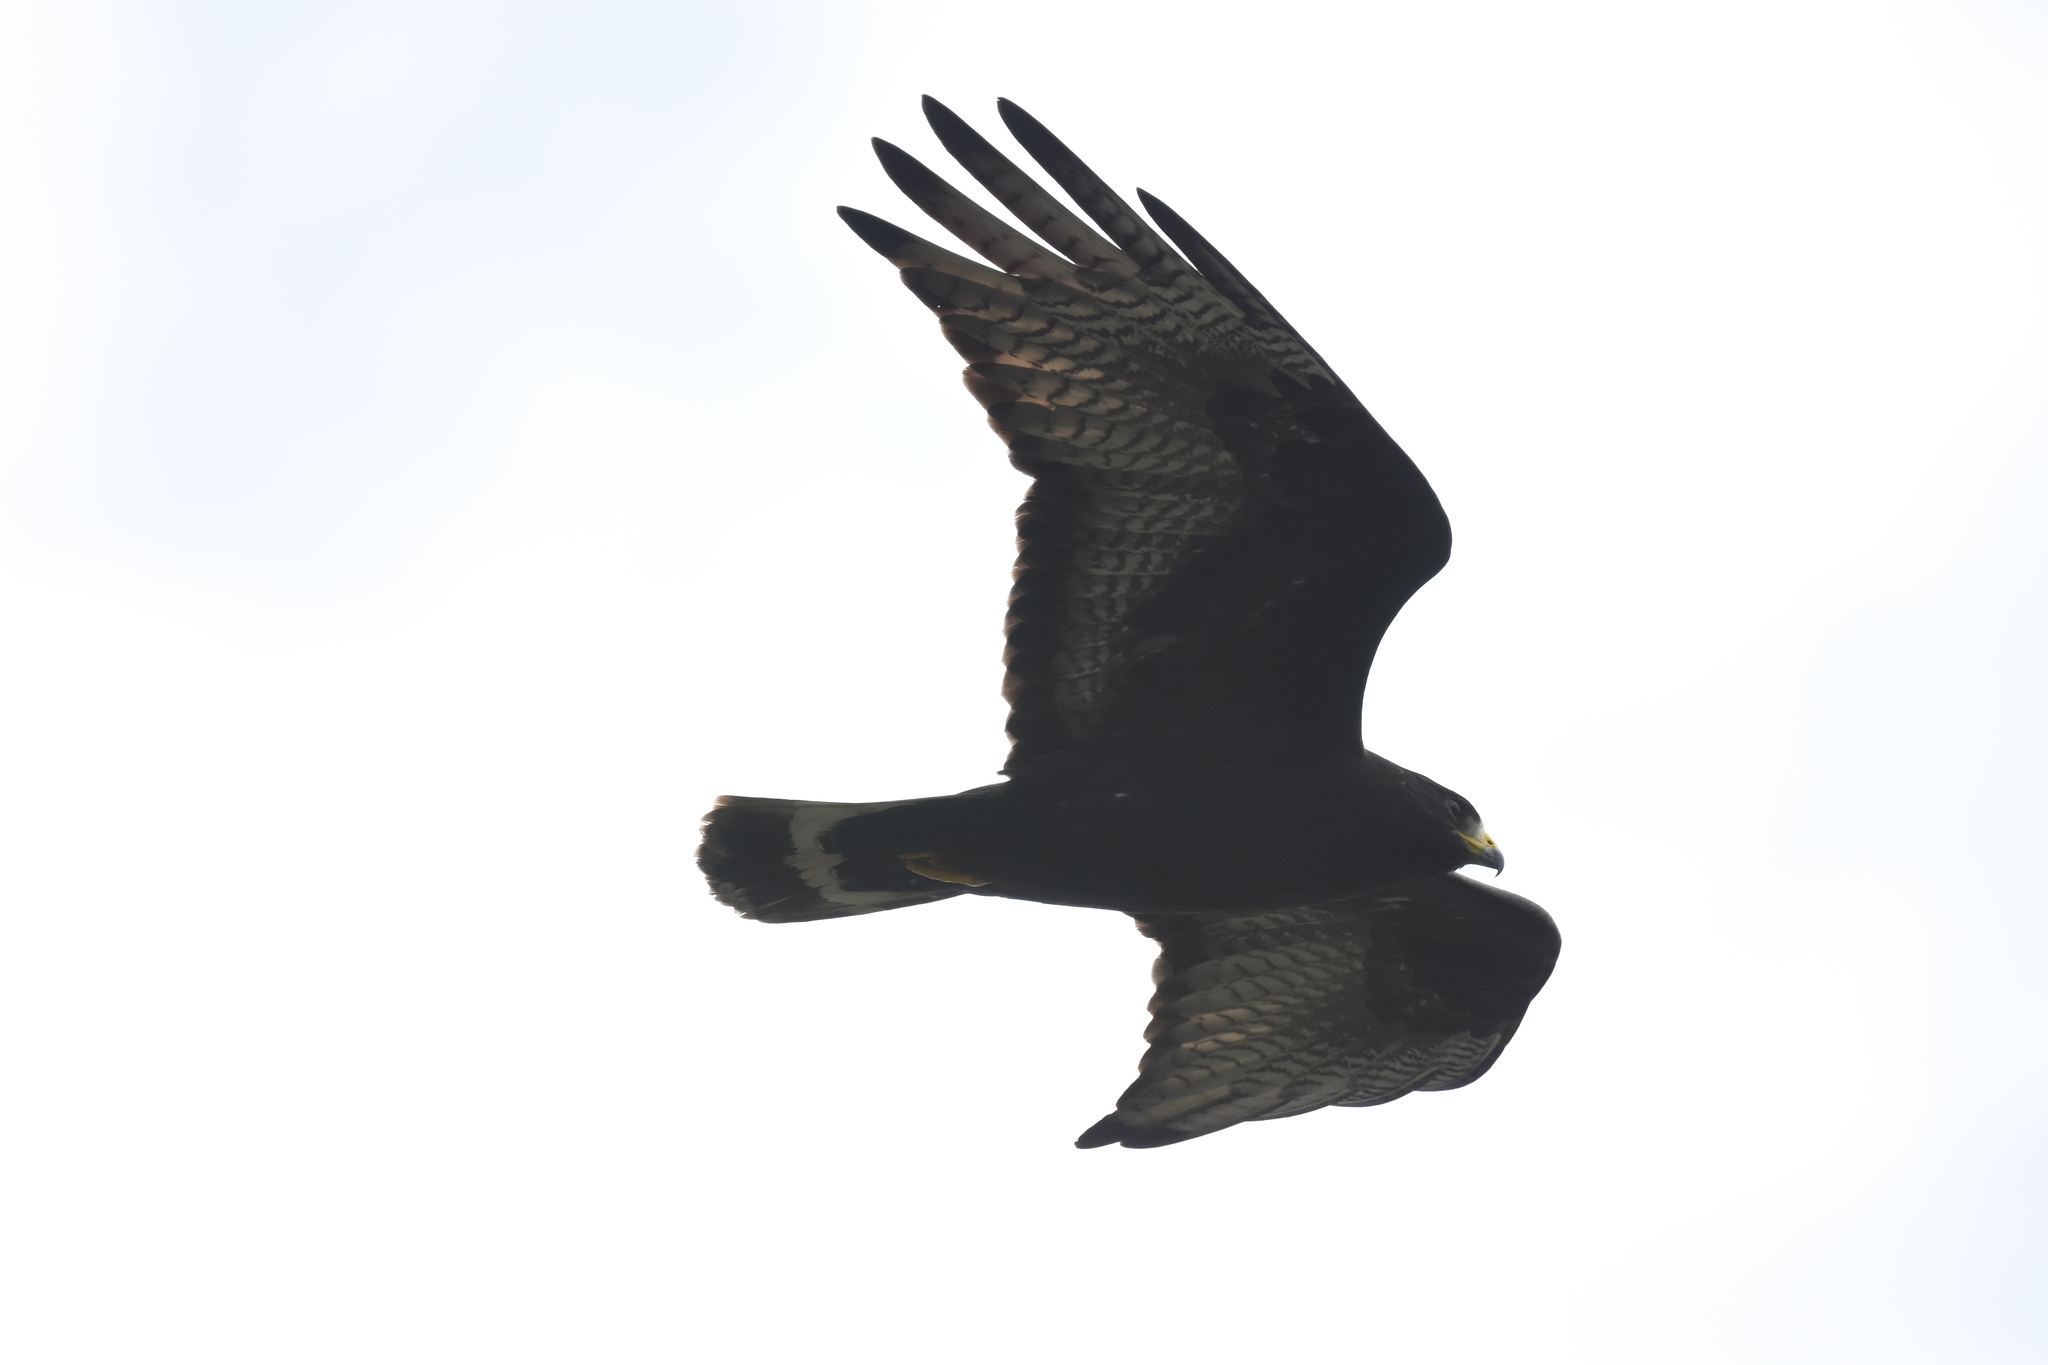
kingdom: Animalia
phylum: Chordata
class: Aves
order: Accipitriformes
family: Accipitridae
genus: Buteo
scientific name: Buteo albonotatus
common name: Zone-tailed hawk
